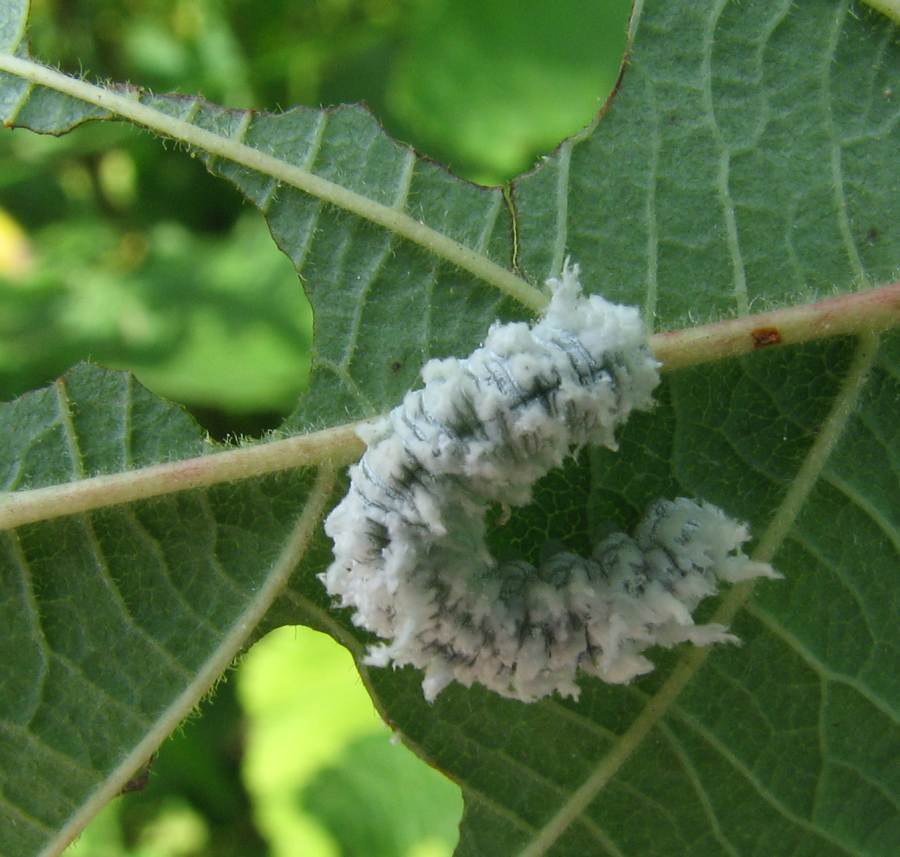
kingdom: Animalia
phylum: Arthropoda
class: Insecta
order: Hymenoptera
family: Tenthredinidae
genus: Eriocampa
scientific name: Eriocampa ovata
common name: Alder wooly sawfly
